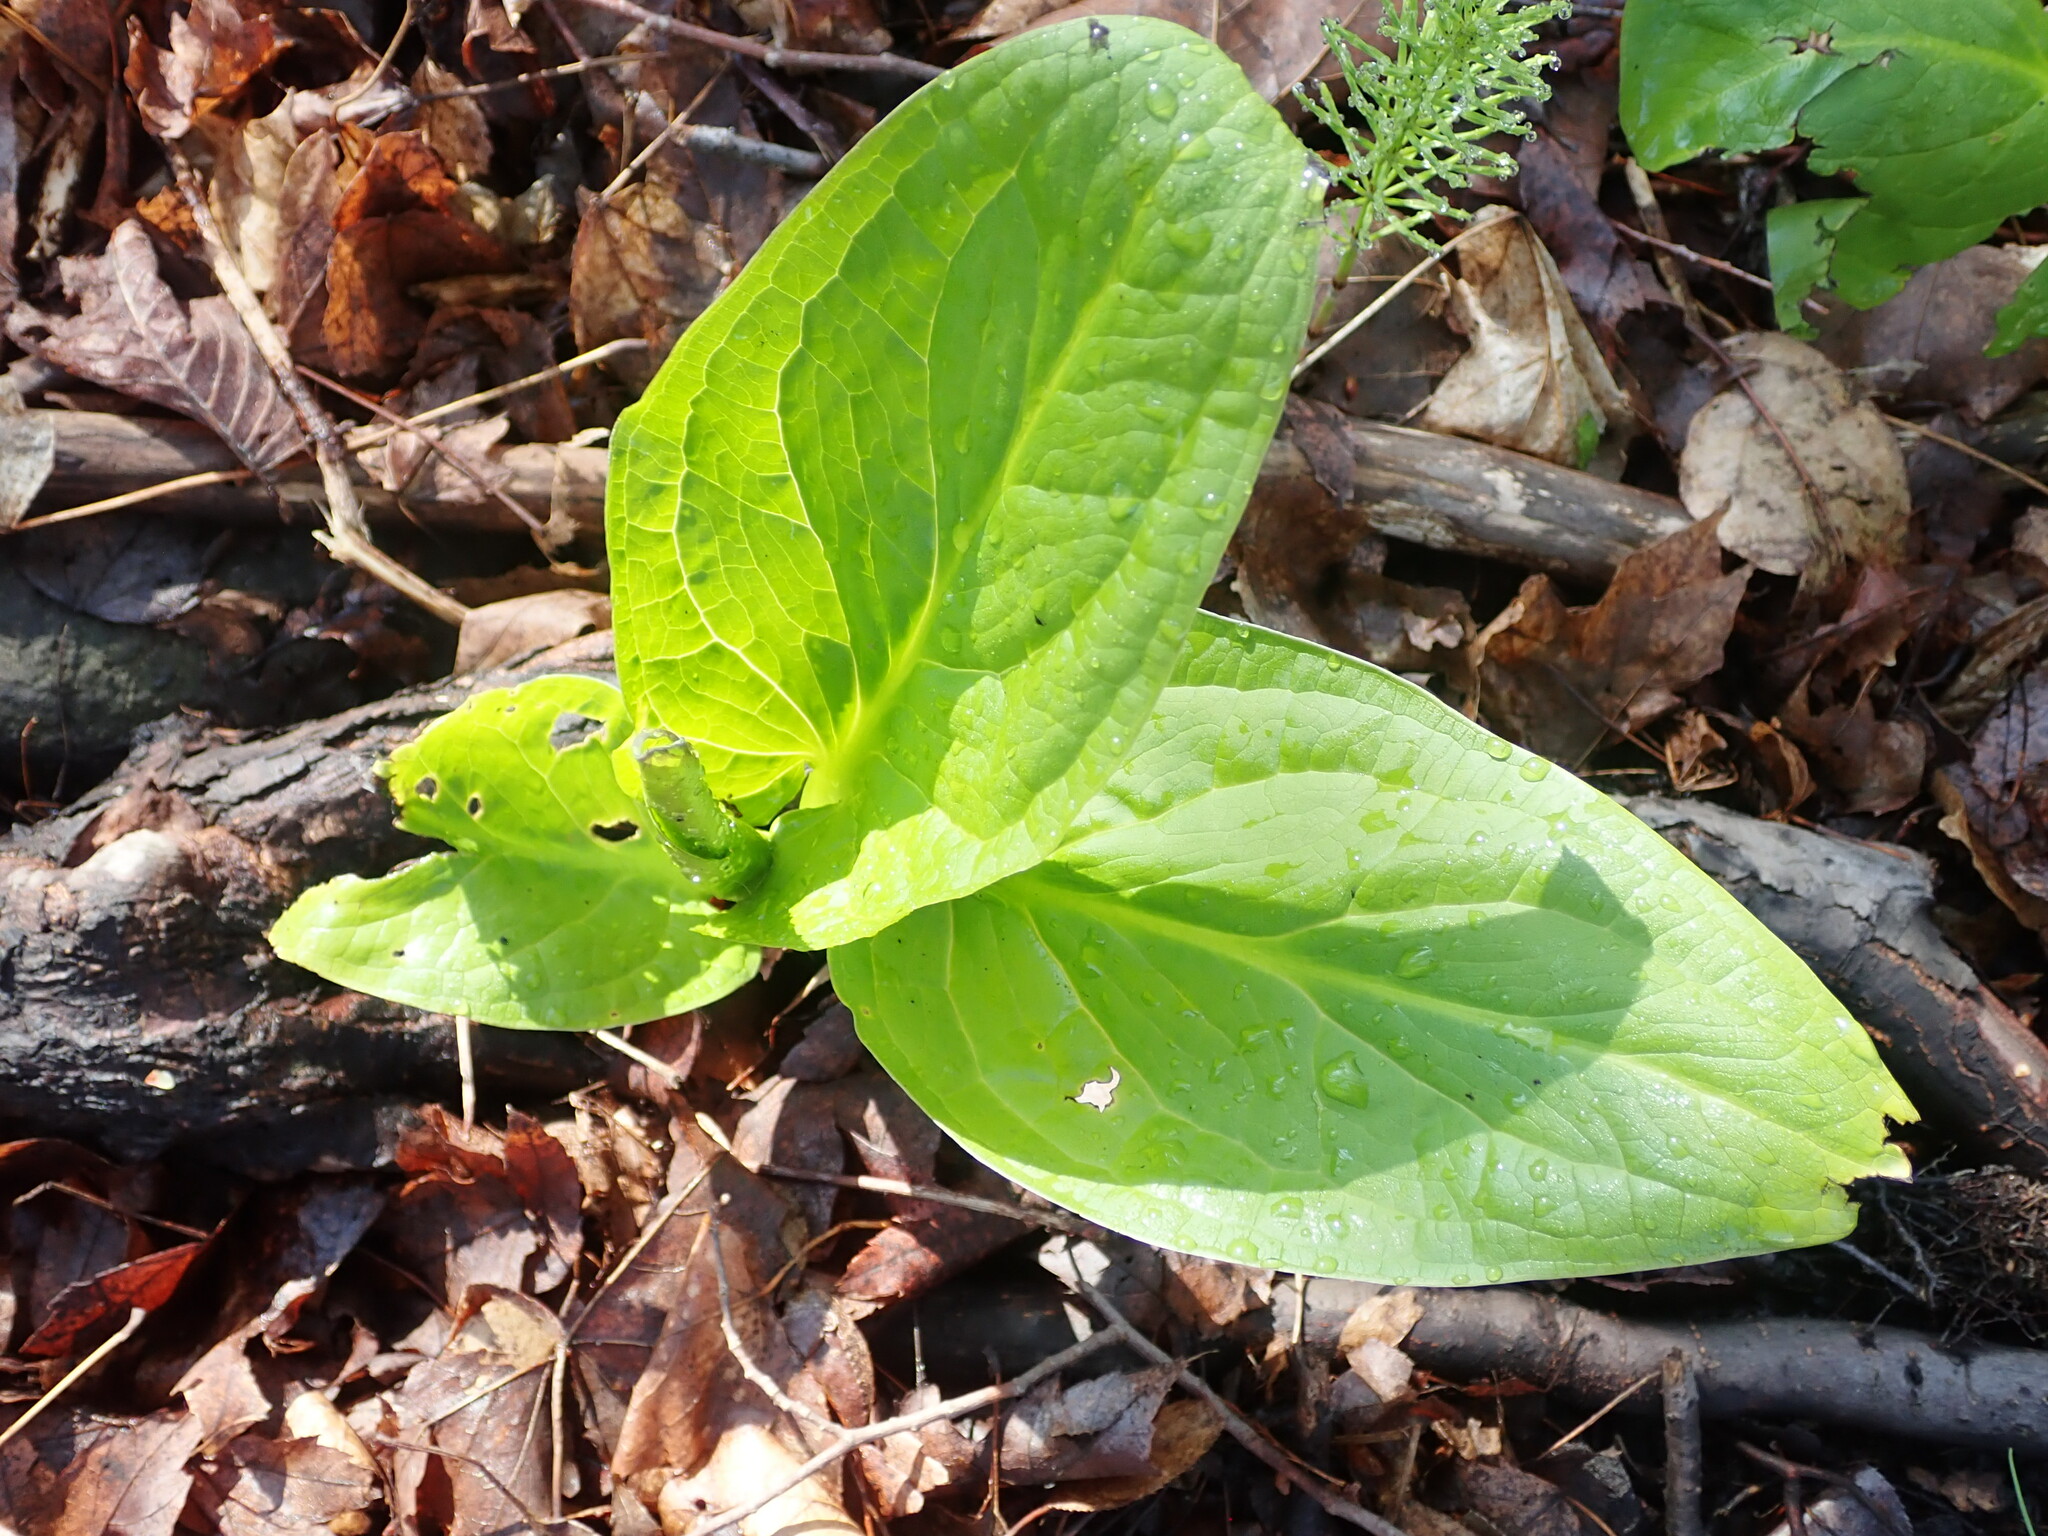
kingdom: Plantae
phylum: Tracheophyta
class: Liliopsida
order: Alismatales
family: Araceae
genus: Symplocarpus
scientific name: Symplocarpus foetidus
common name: Eastern skunk cabbage
